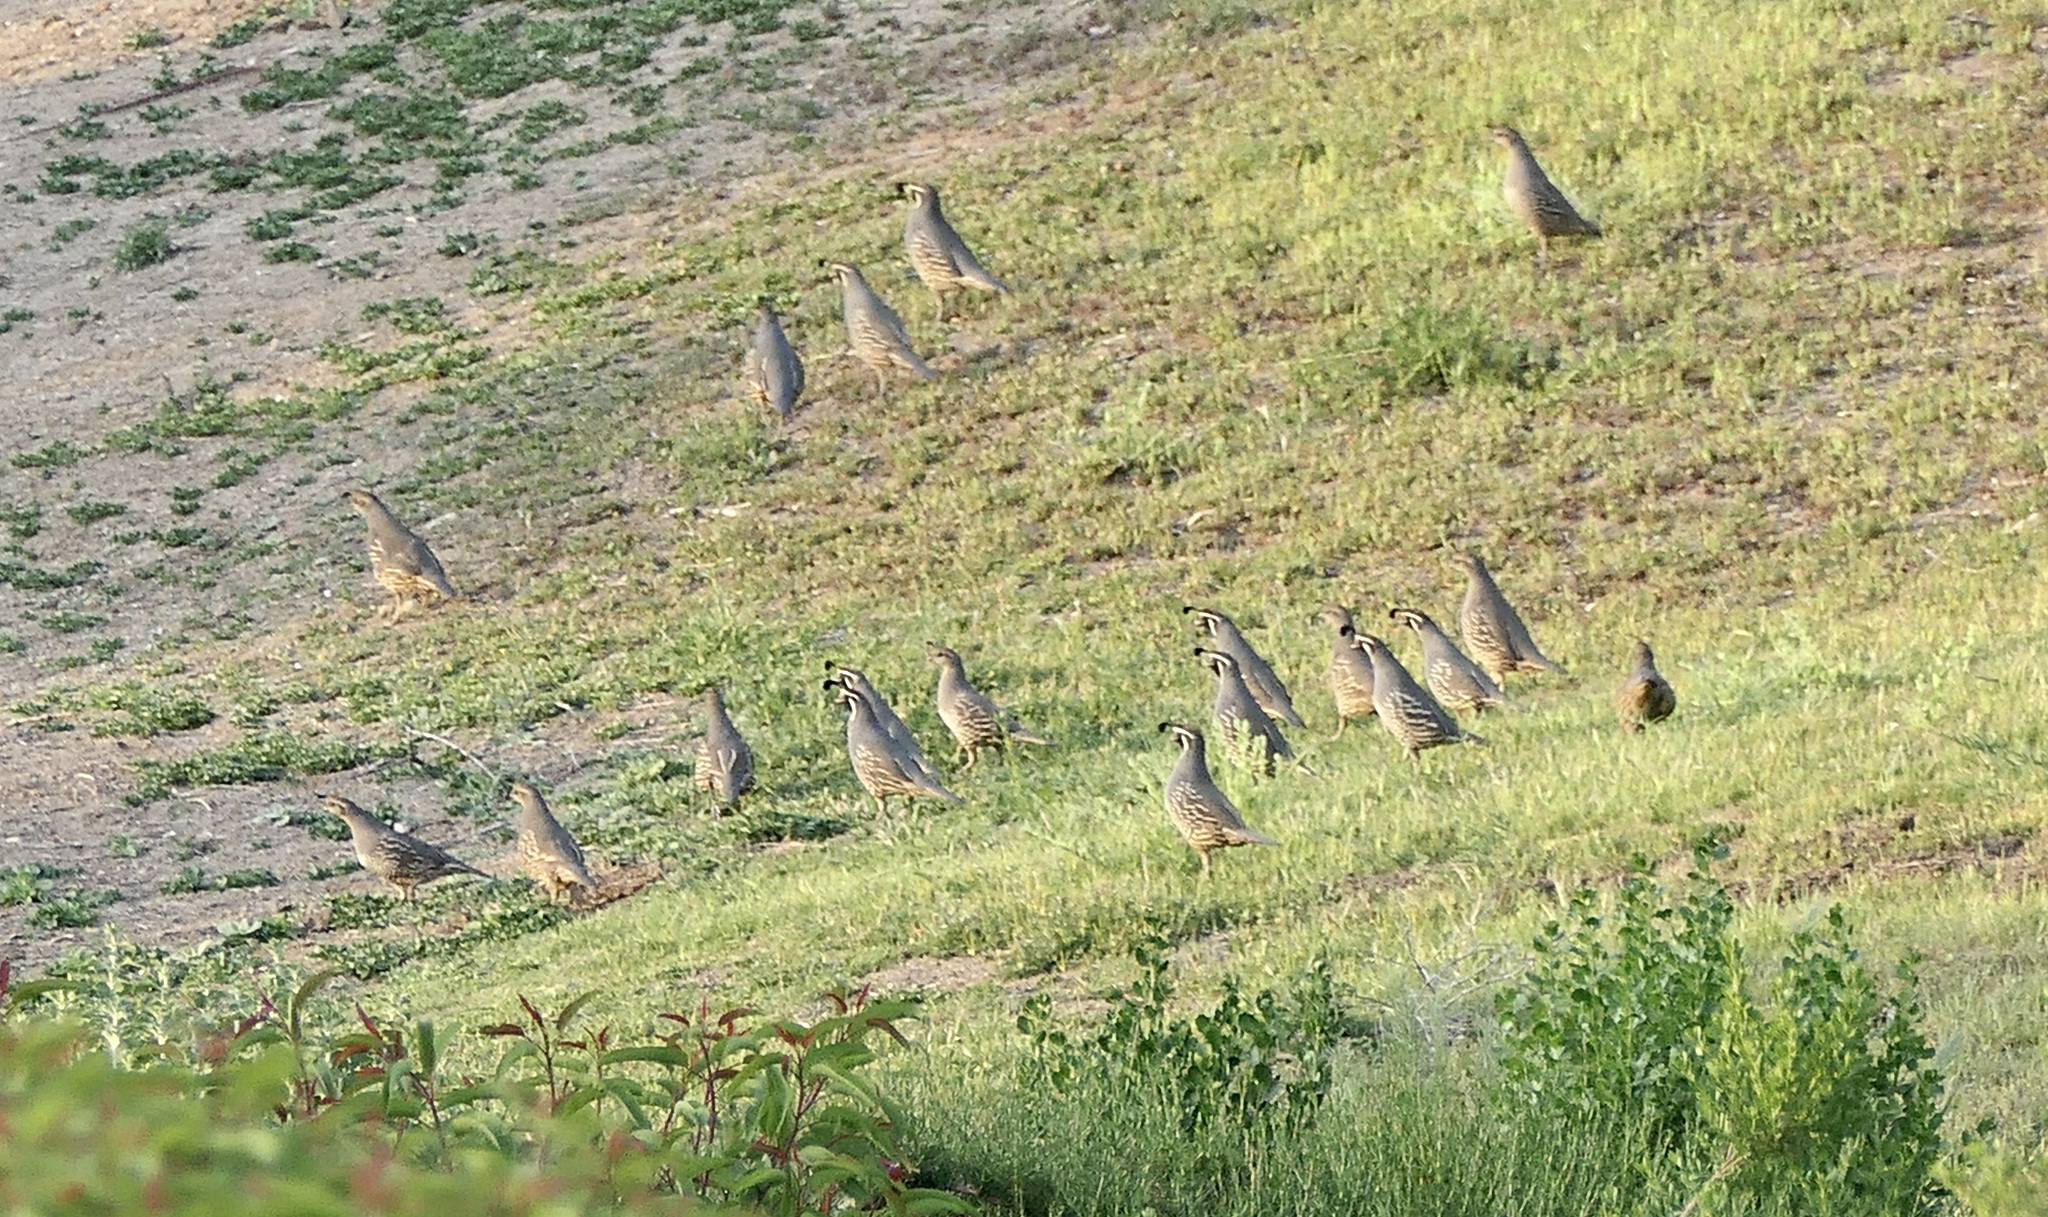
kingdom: Animalia
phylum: Chordata
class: Aves
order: Galliformes
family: Odontophoridae
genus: Callipepla
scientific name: Callipepla californica
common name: California quail
